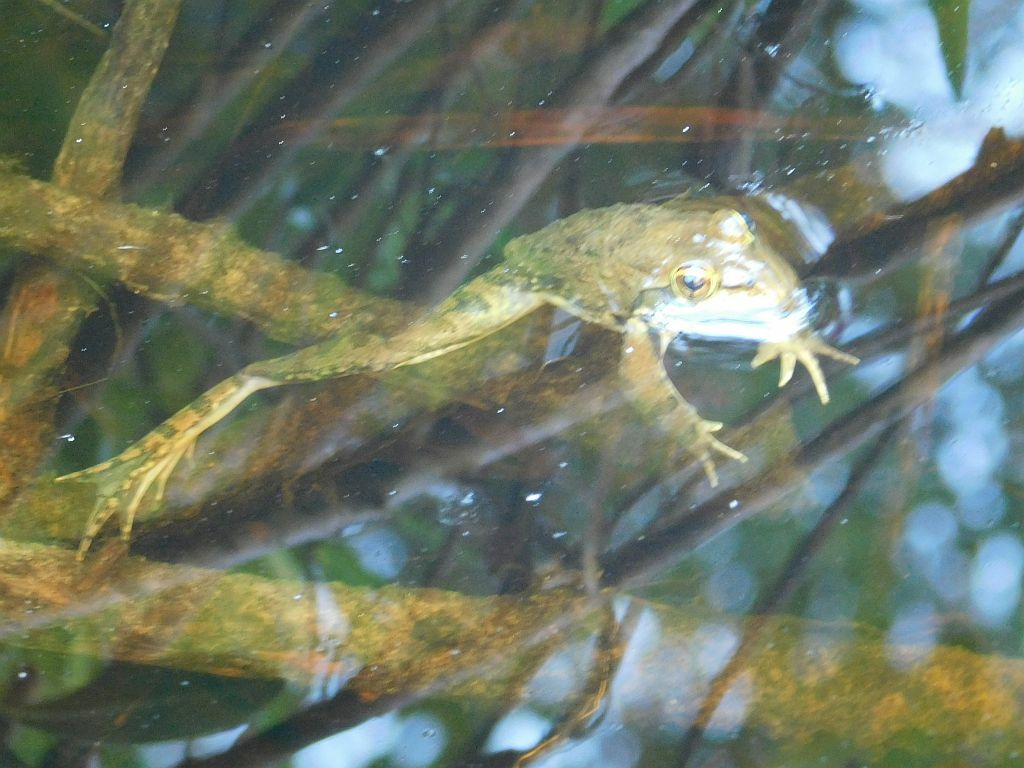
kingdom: Animalia
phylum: Chordata
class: Amphibia
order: Anura
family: Pyxicephalidae
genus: Amietia
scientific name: Amietia fuscigula
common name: Cape rana
